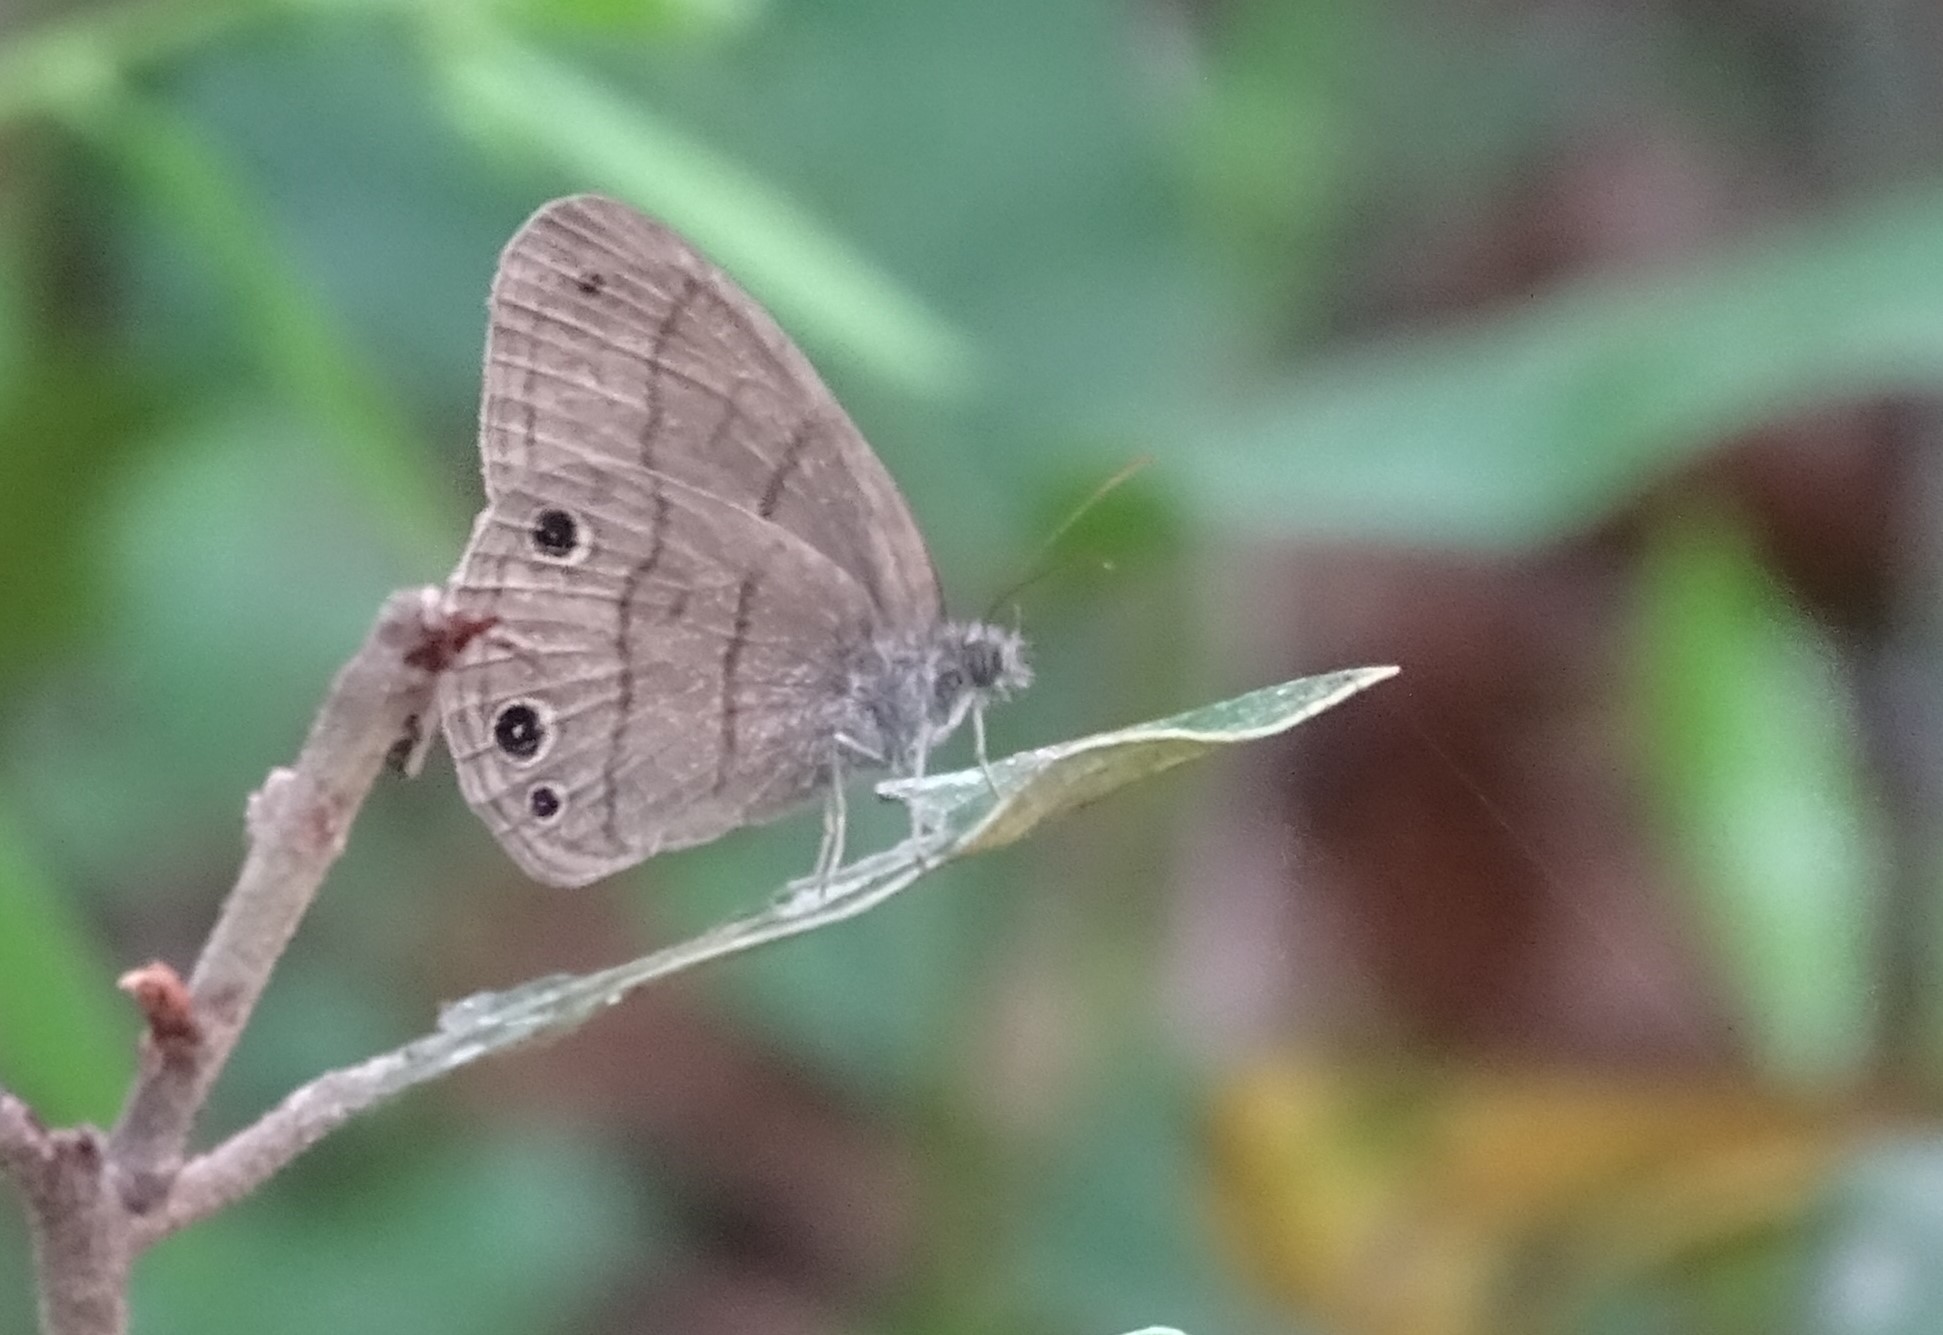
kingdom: Animalia
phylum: Arthropoda
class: Insecta
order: Lepidoptera
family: Nymphalidae
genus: Hermeuptychia
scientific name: Hermeuptychia hermes
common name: Hermes satyr
